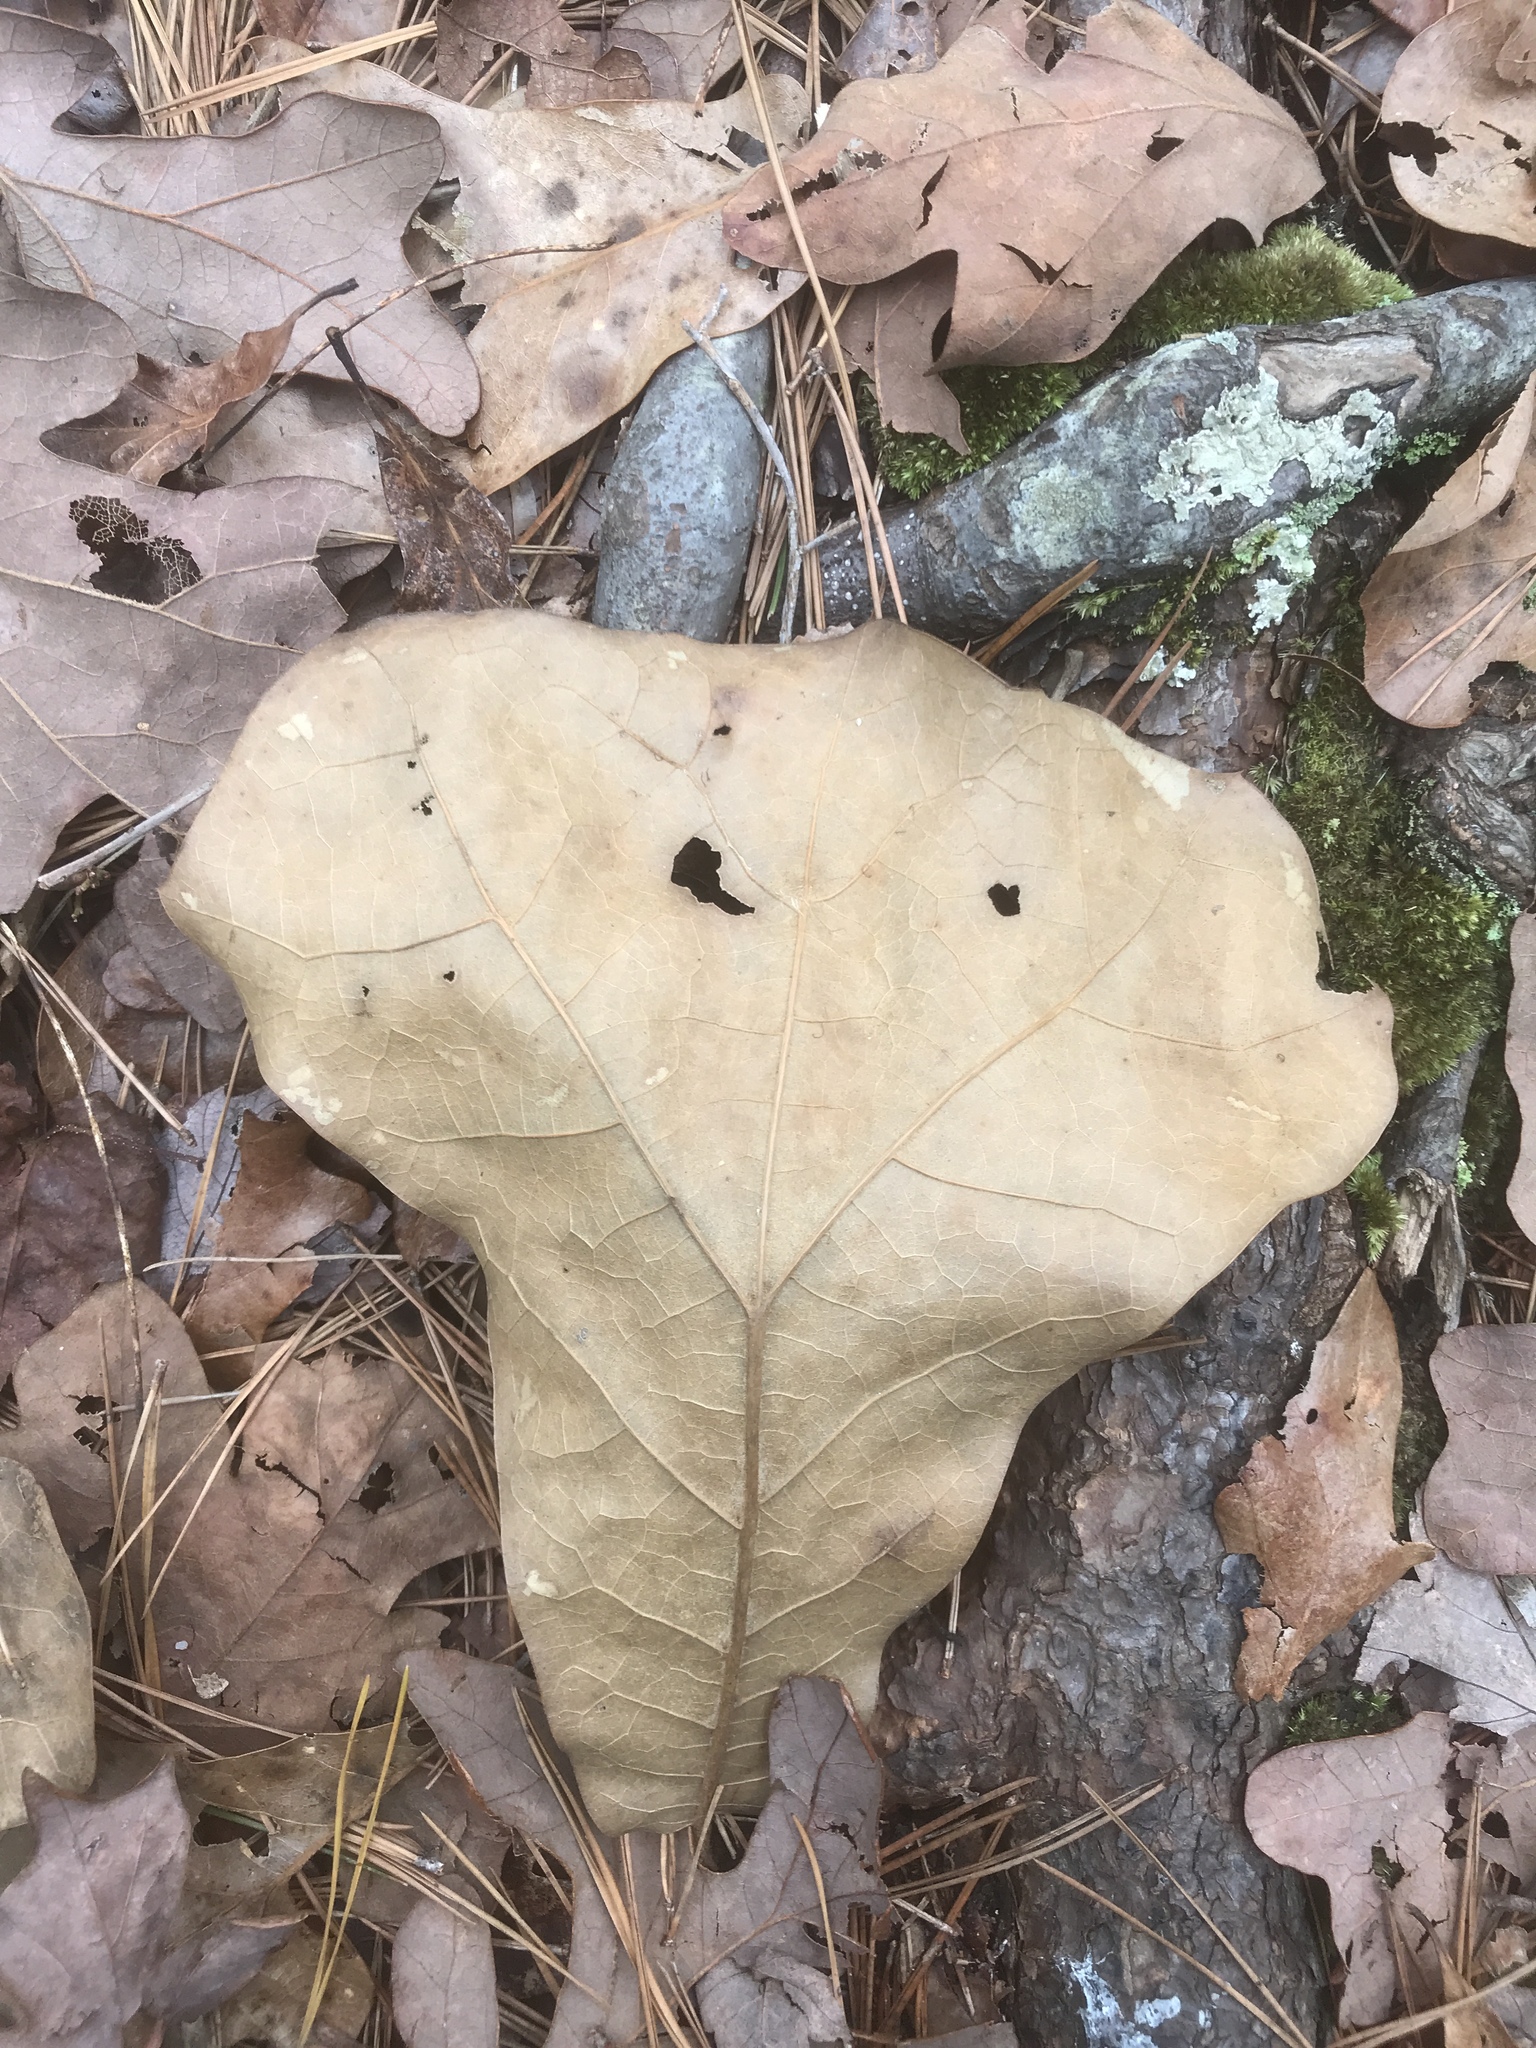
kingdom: Plantae
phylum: Tracheophyta
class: Magnoliopsida
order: Fagales
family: Fagaceae
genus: Quercus
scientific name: Quercus marilandica
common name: Blackjack oak
